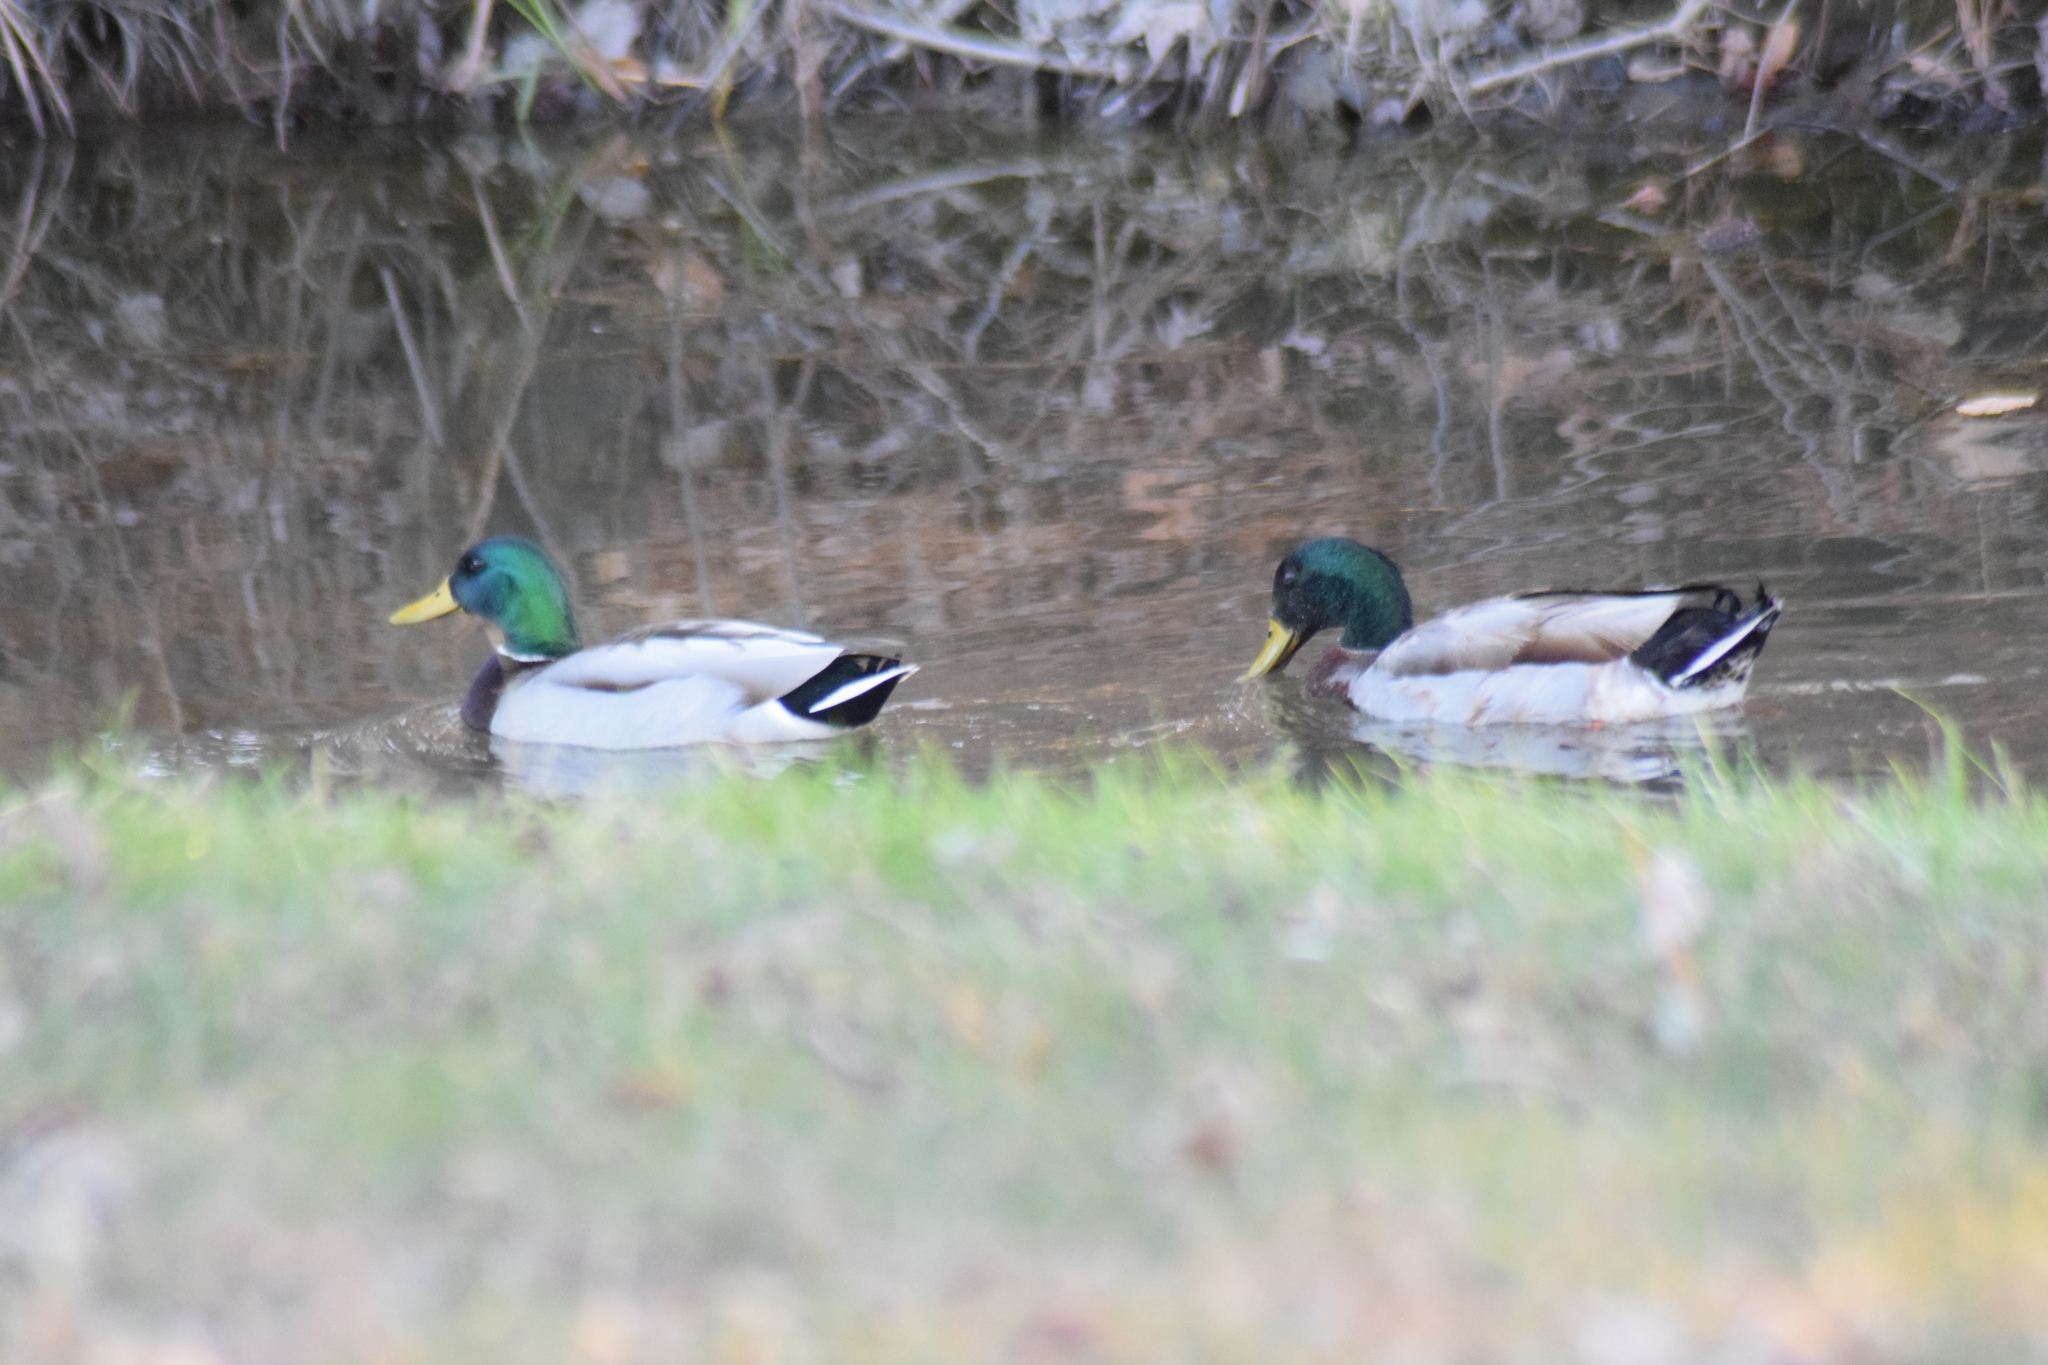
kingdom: Animalia
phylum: Chordata
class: Aves
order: Anseriformes
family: Anatidae
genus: Anas
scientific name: Anas platyrhynchos
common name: Mallard
